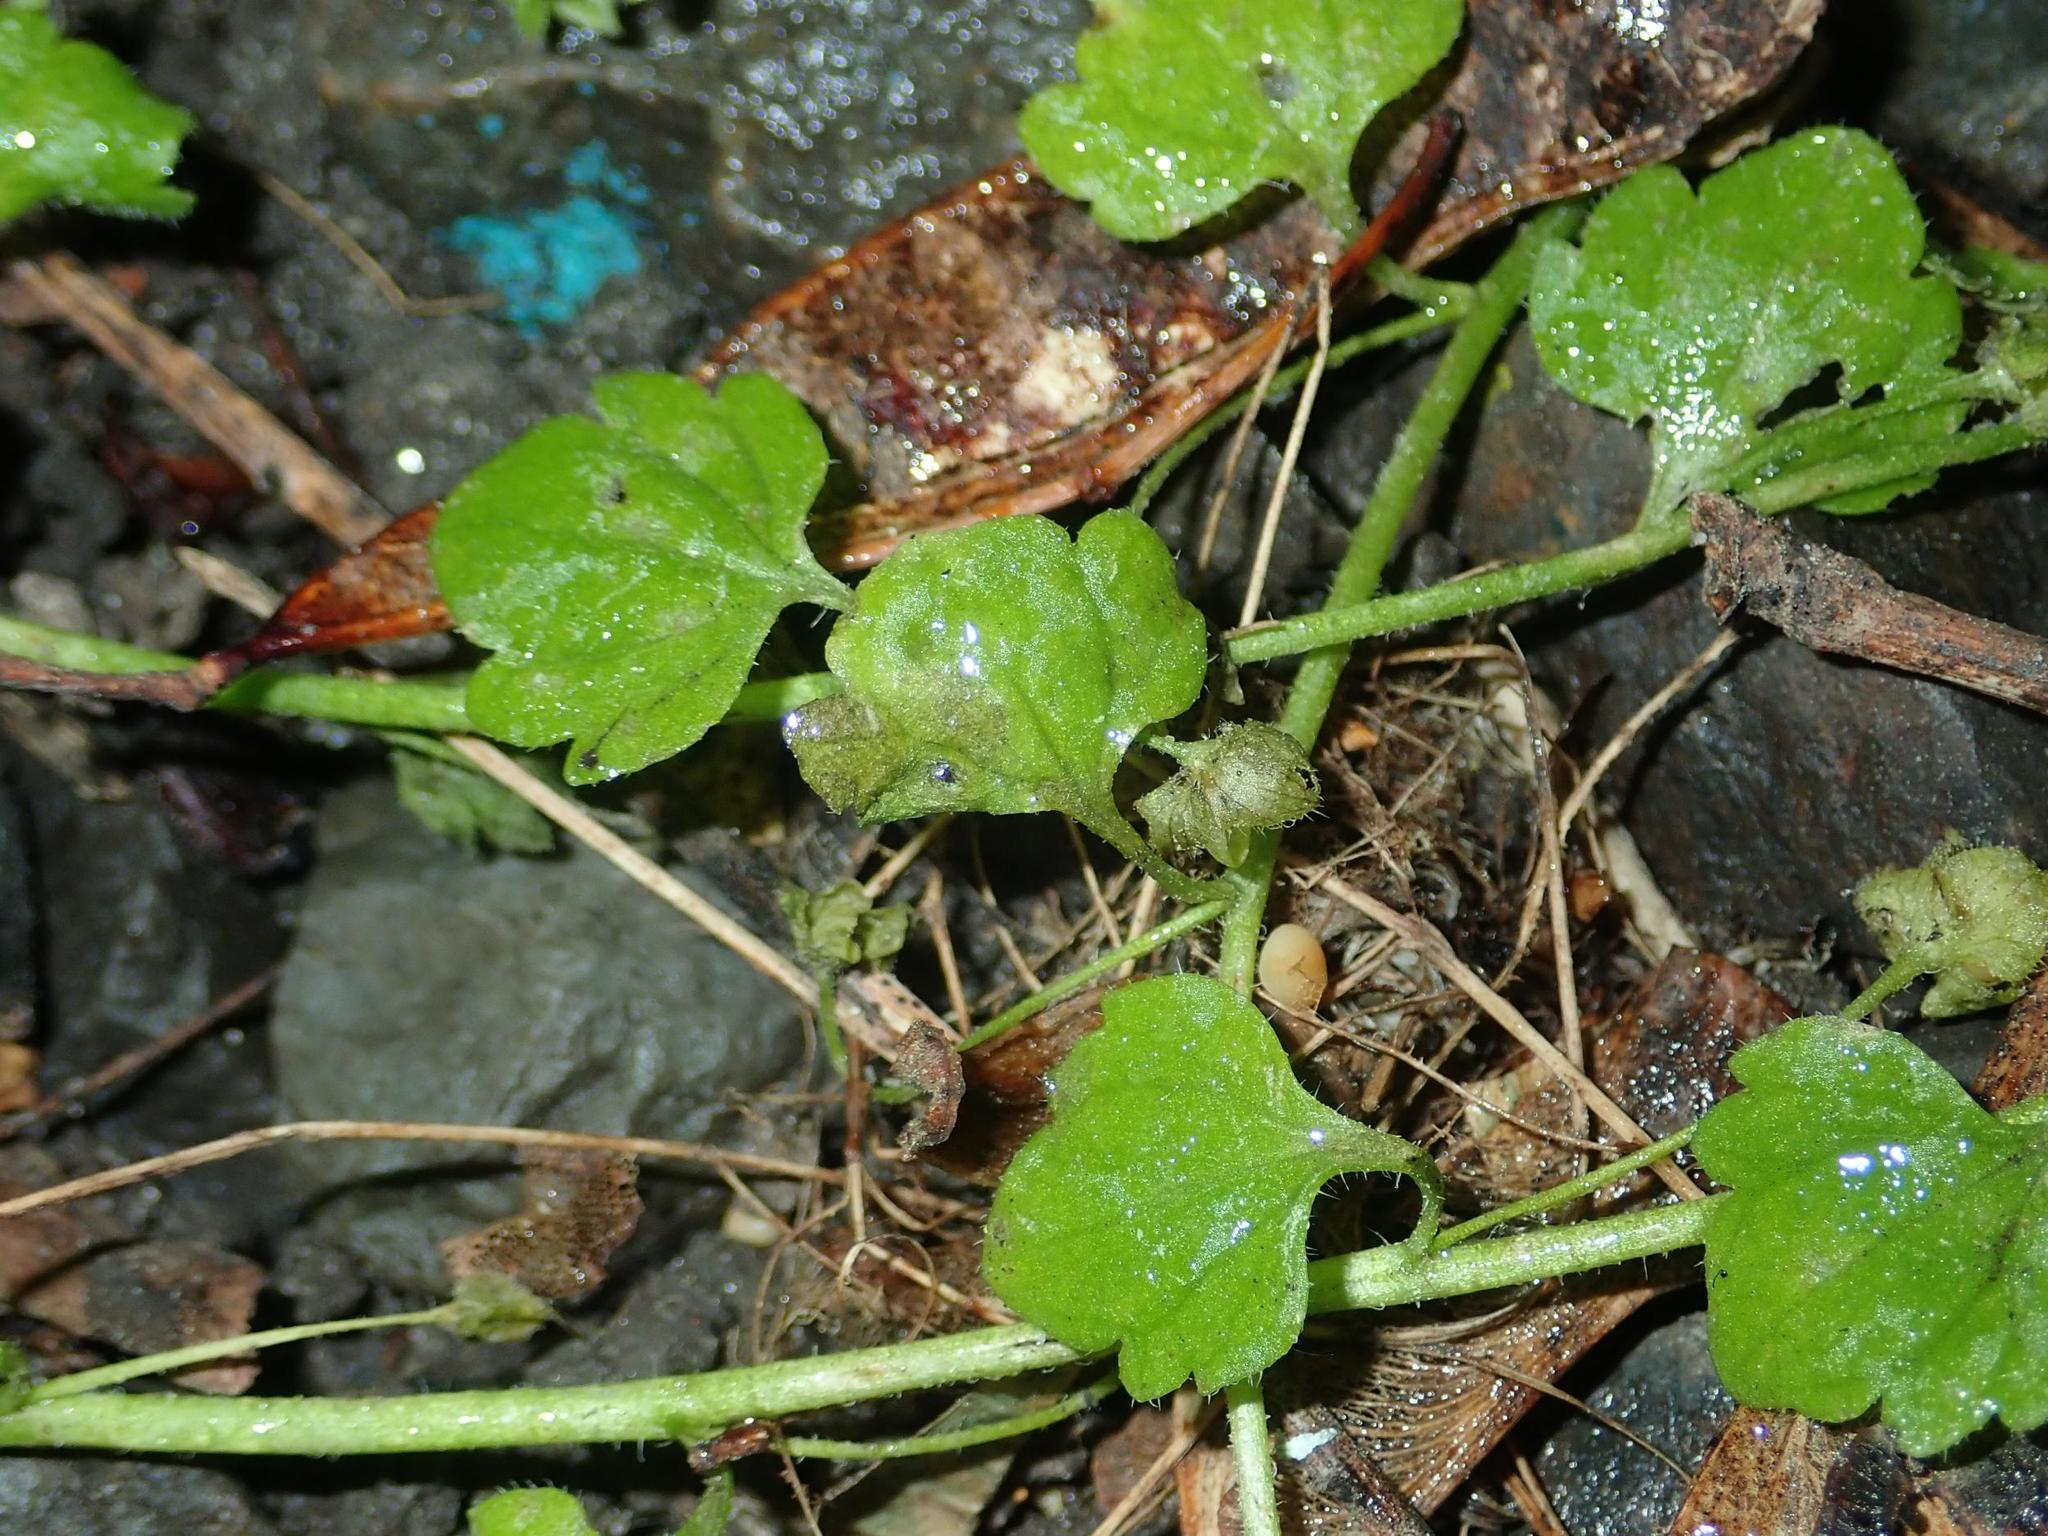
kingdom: Plantae
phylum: Tracheophyta
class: Magnoliopsida
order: Lamiales
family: Plantaginaceae
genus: Veronica
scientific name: Veronica hederifolia
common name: Ivy-leaved speedwell
